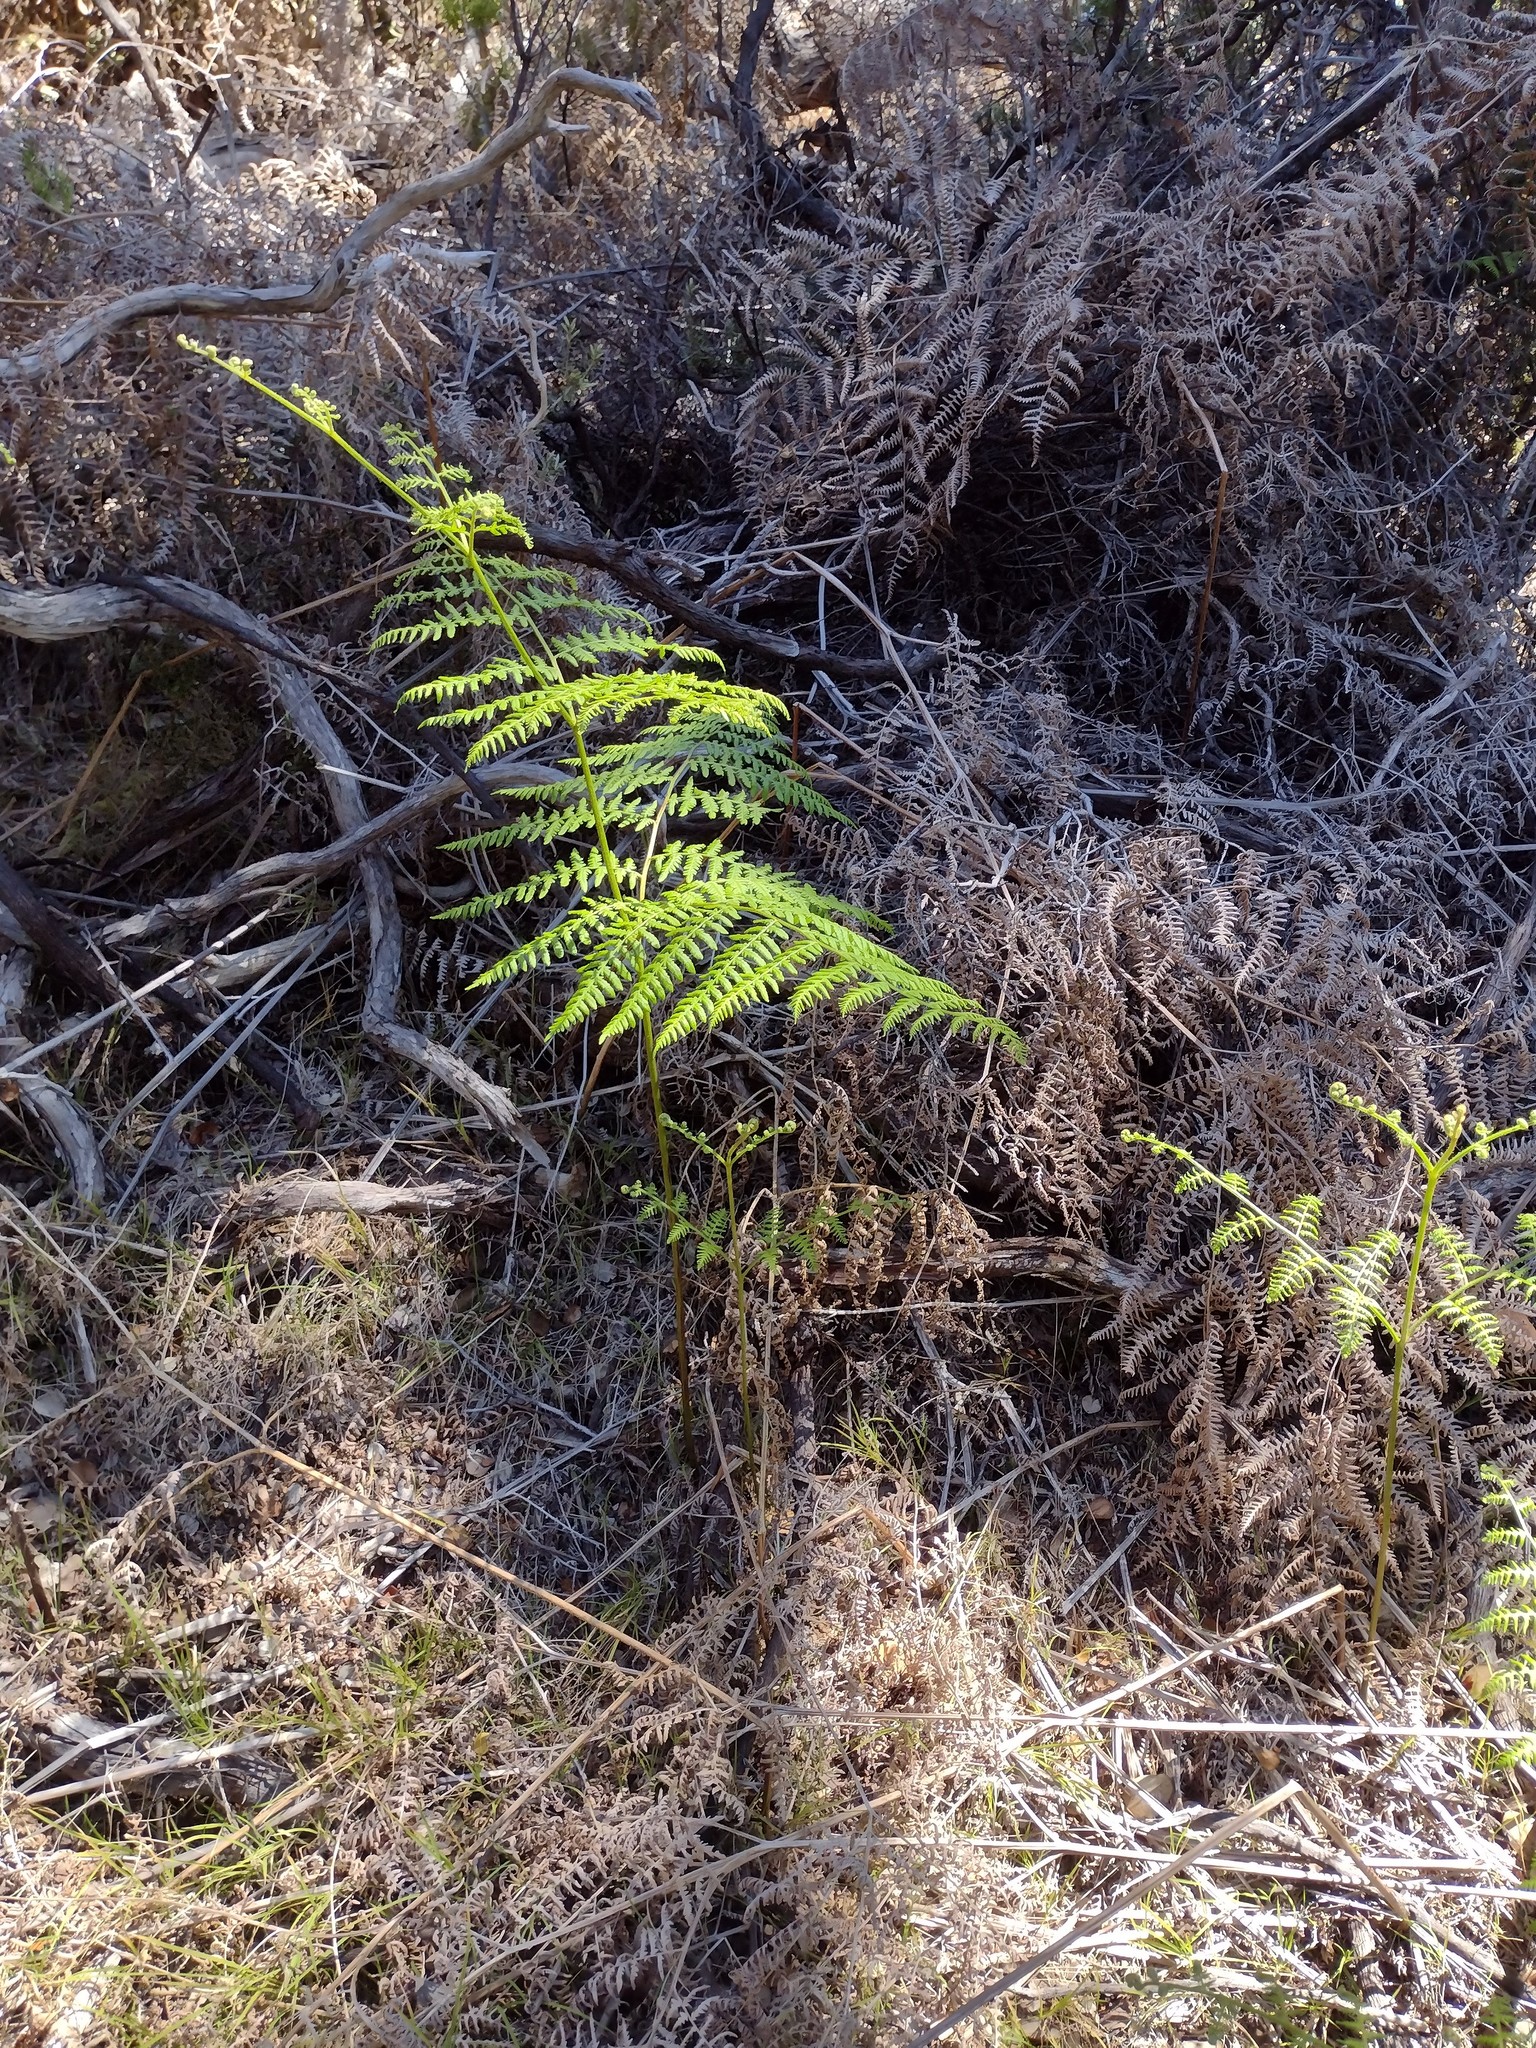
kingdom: Plantae
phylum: Tracheophyta
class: Polypodiopsida
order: Polypodiales
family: Dennstaedtiaceae
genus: Pteridium
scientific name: Pteridium aquilinum
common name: Bracken
